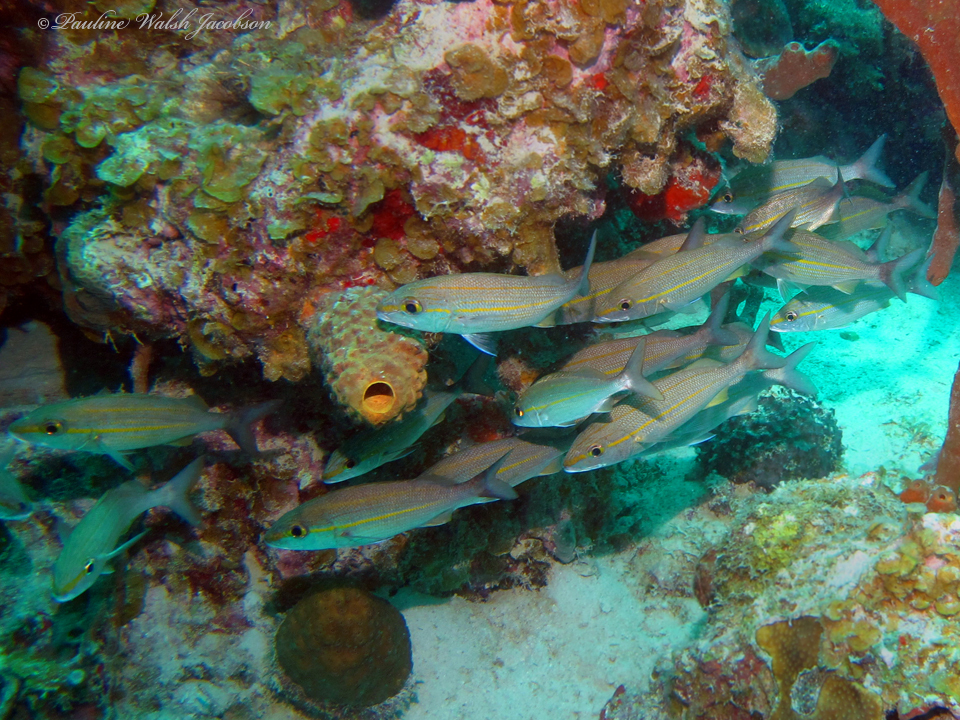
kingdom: Animalia
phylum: Chordata
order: Perciformes
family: Haemulidae
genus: Haemulon
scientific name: Haemulon aurolineatum
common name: Tomtate
